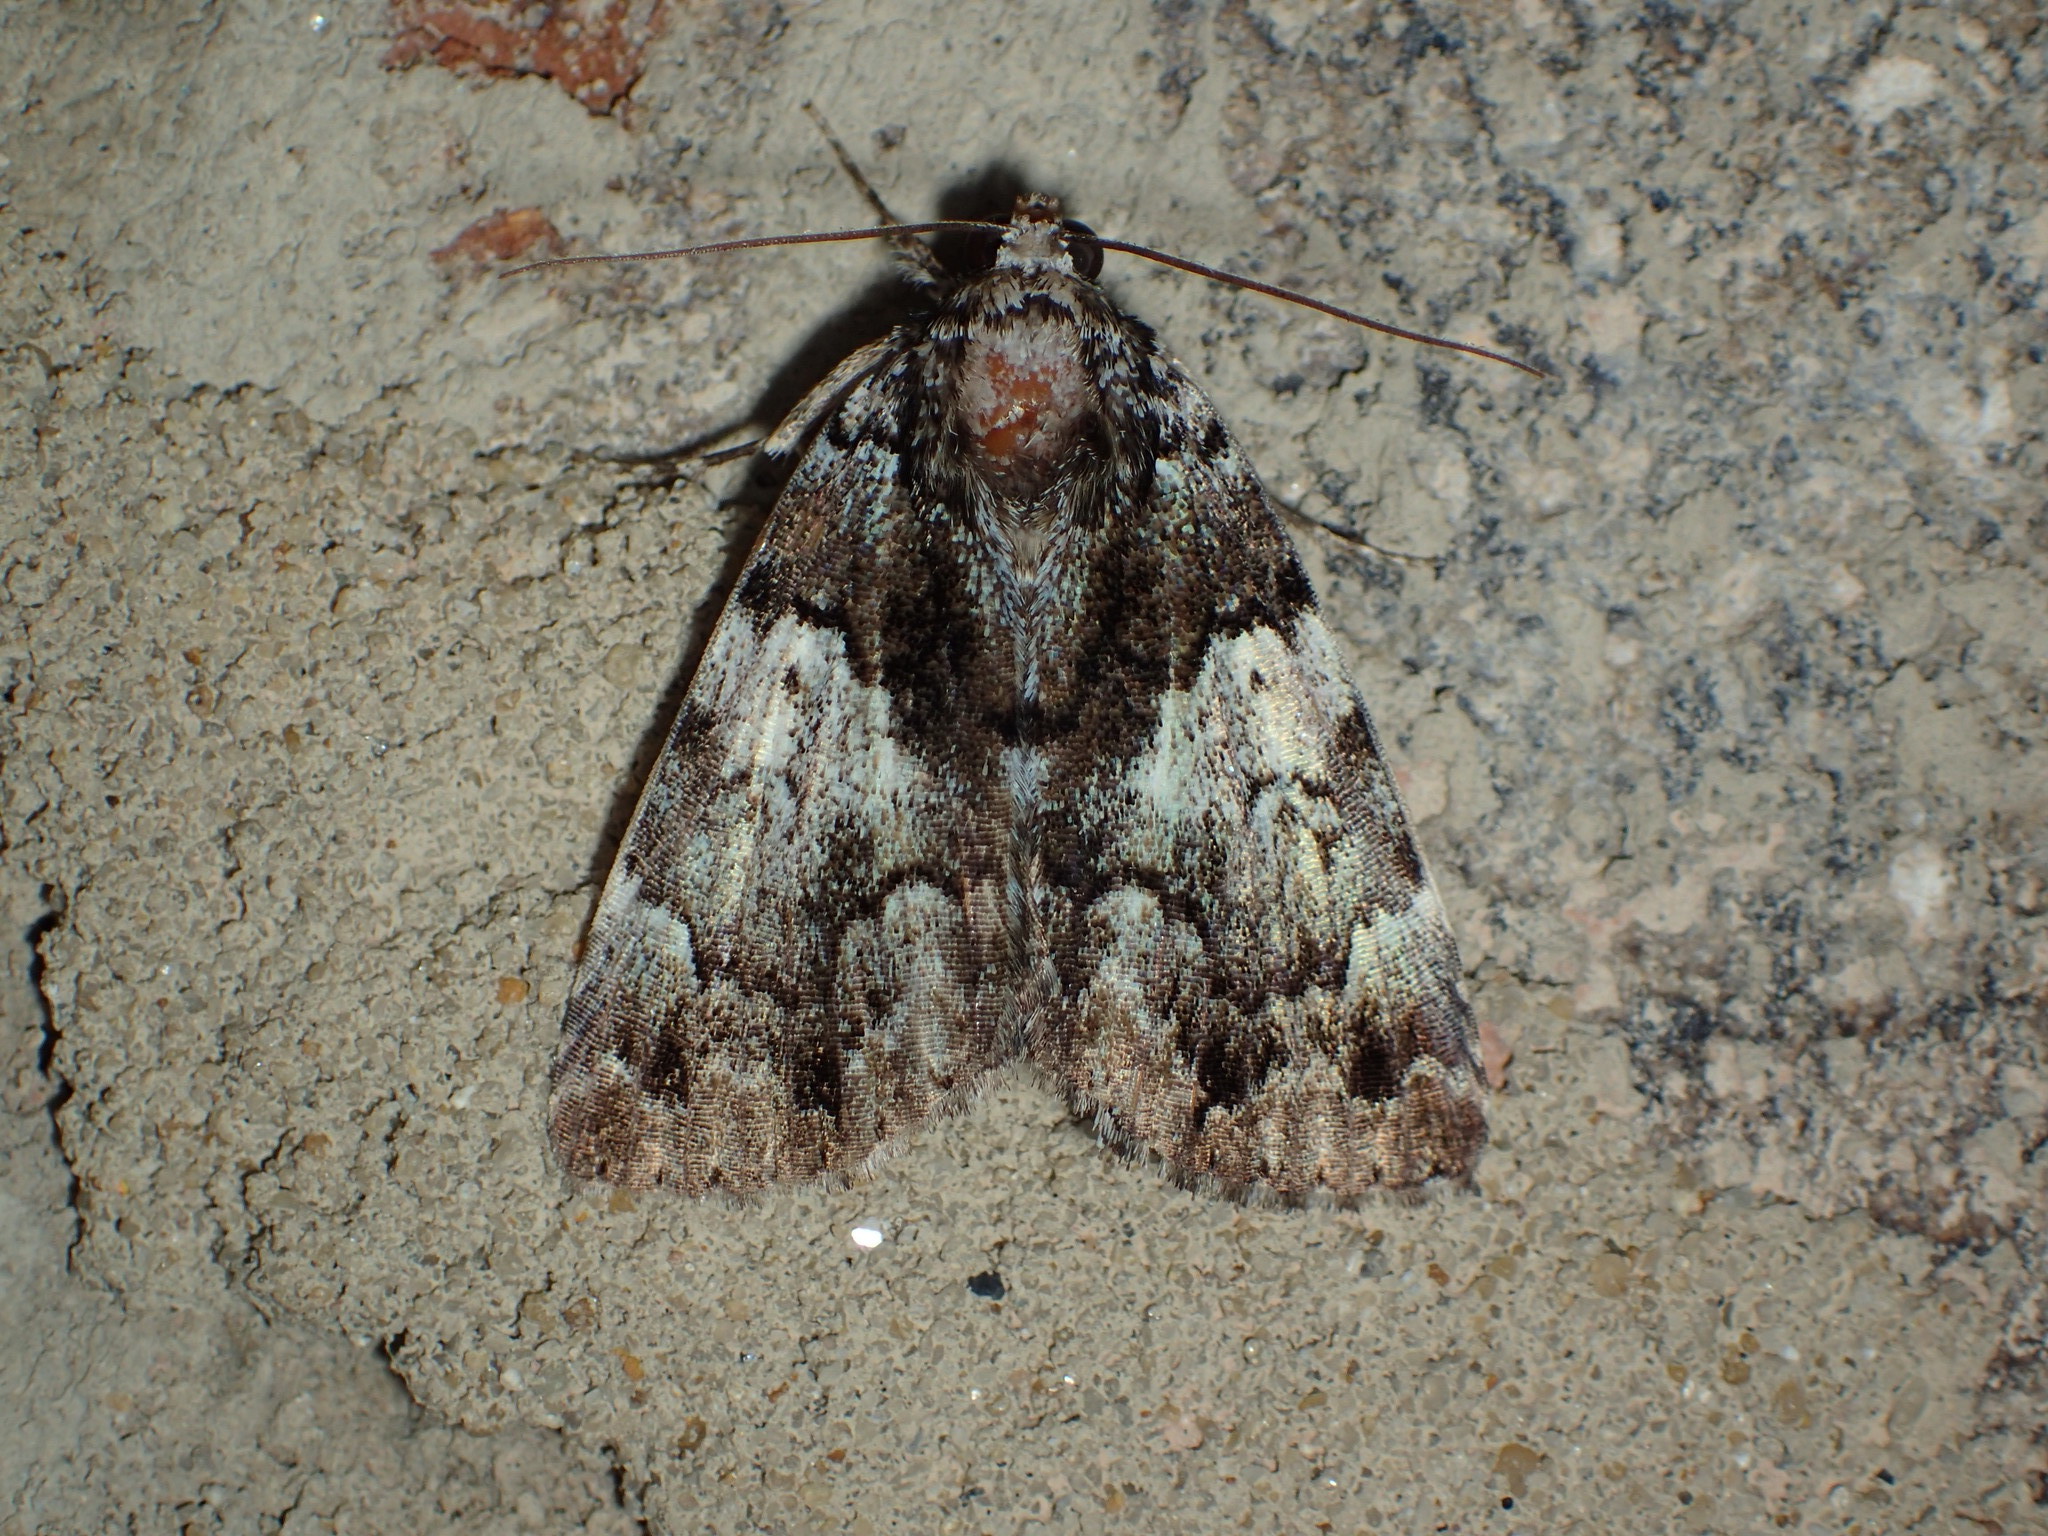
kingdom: Animalia
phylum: Arthropoda
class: Insecta
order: Lepidoptera
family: Erebidae
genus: Allotria
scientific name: Allotria elonympha
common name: False underwing
